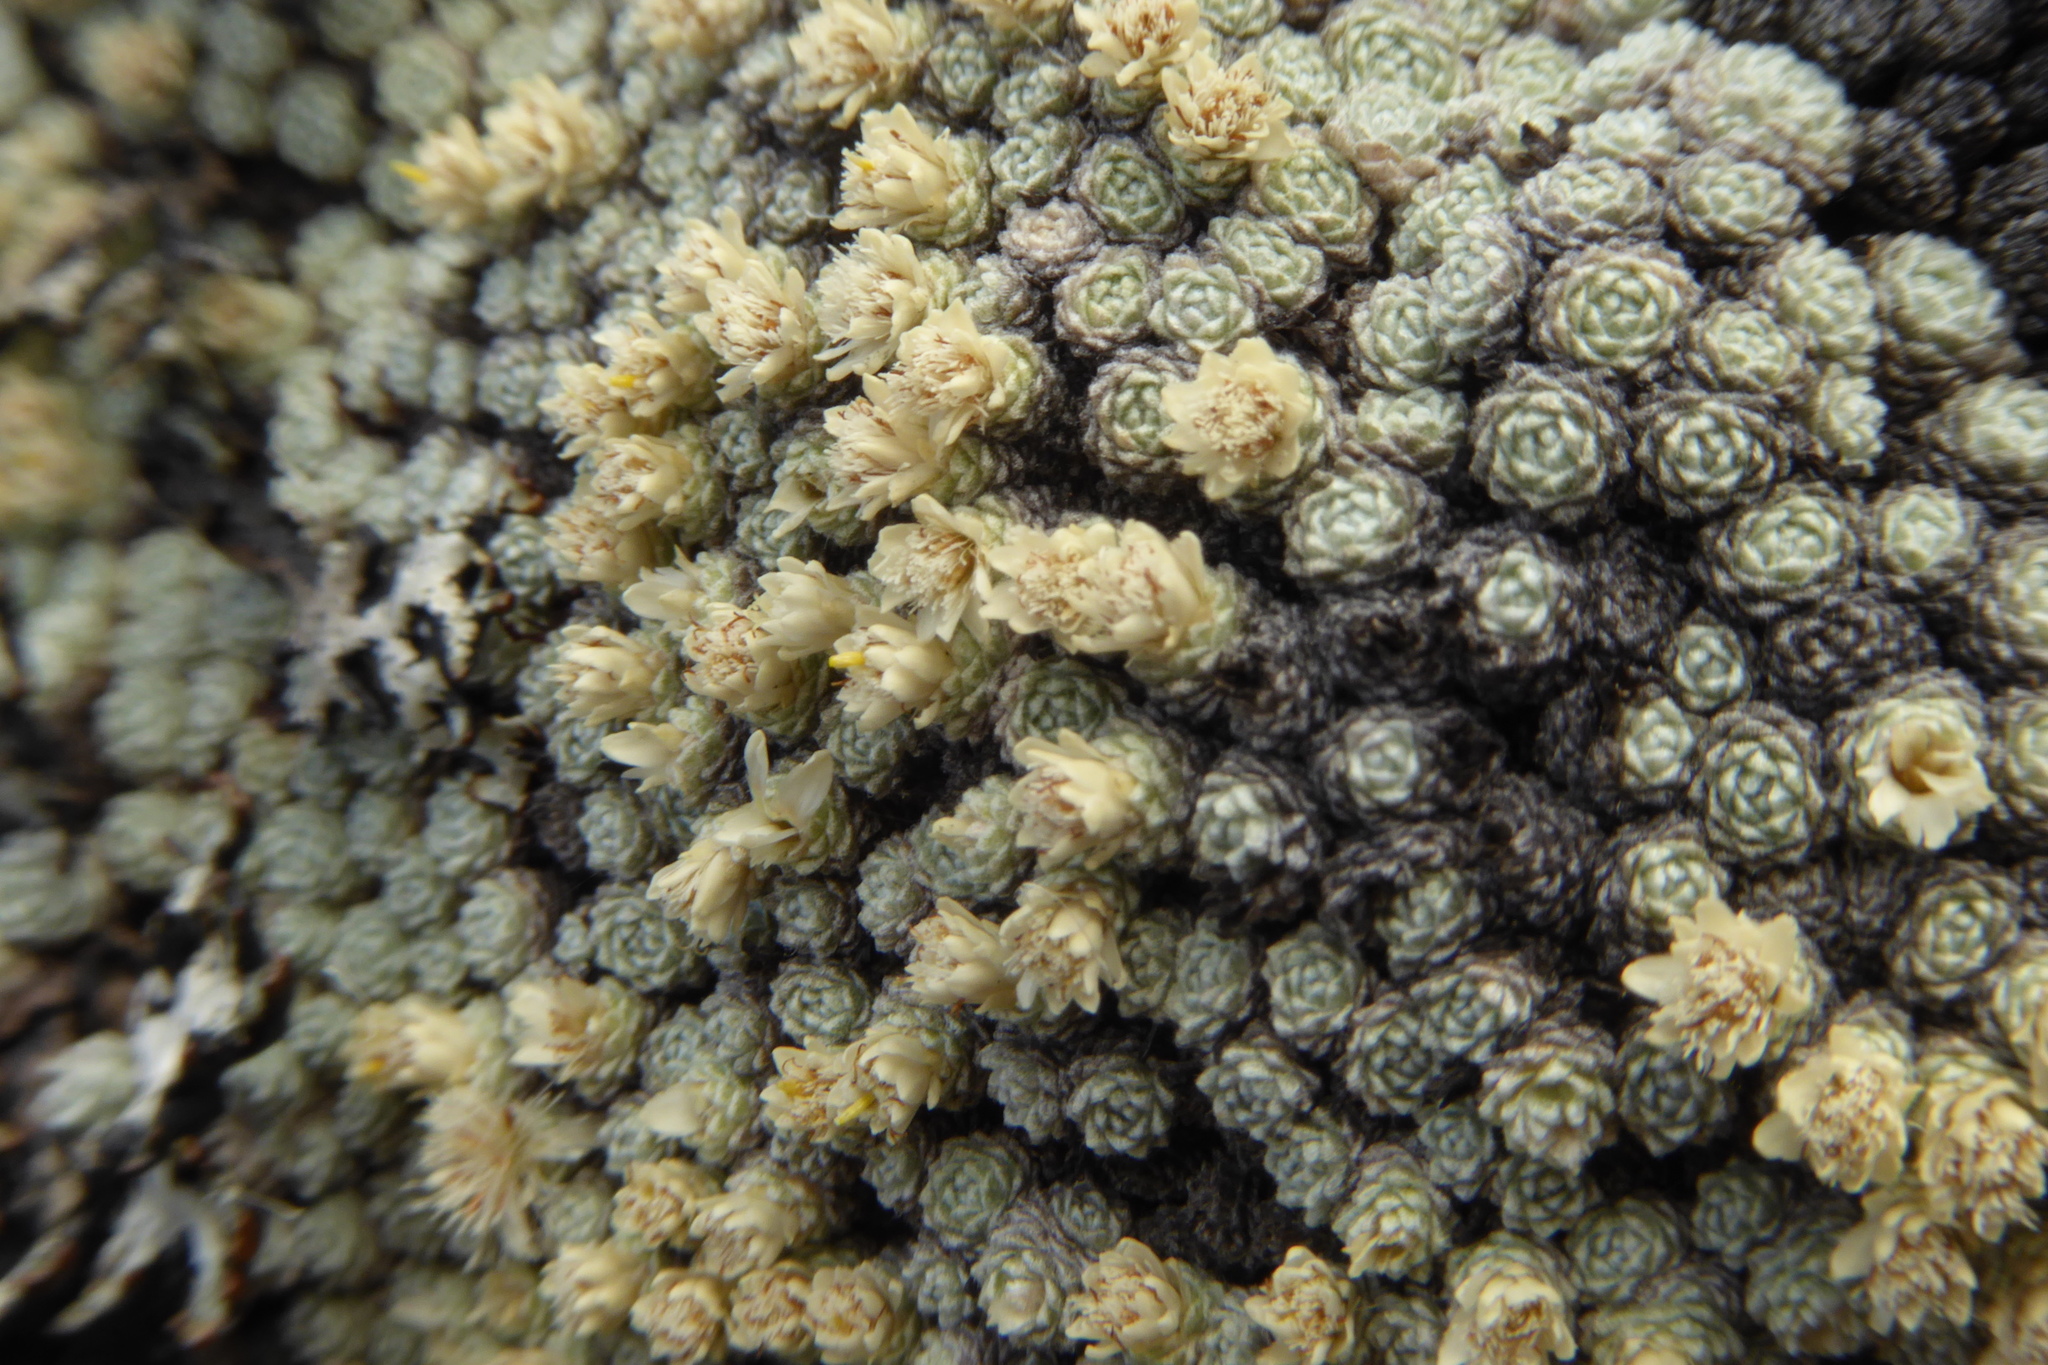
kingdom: Plantae
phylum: Tracheophyta
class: Magnoliopsida
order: Asterales
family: Asteraceae
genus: Raoulia
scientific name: Raoulia bryoides
